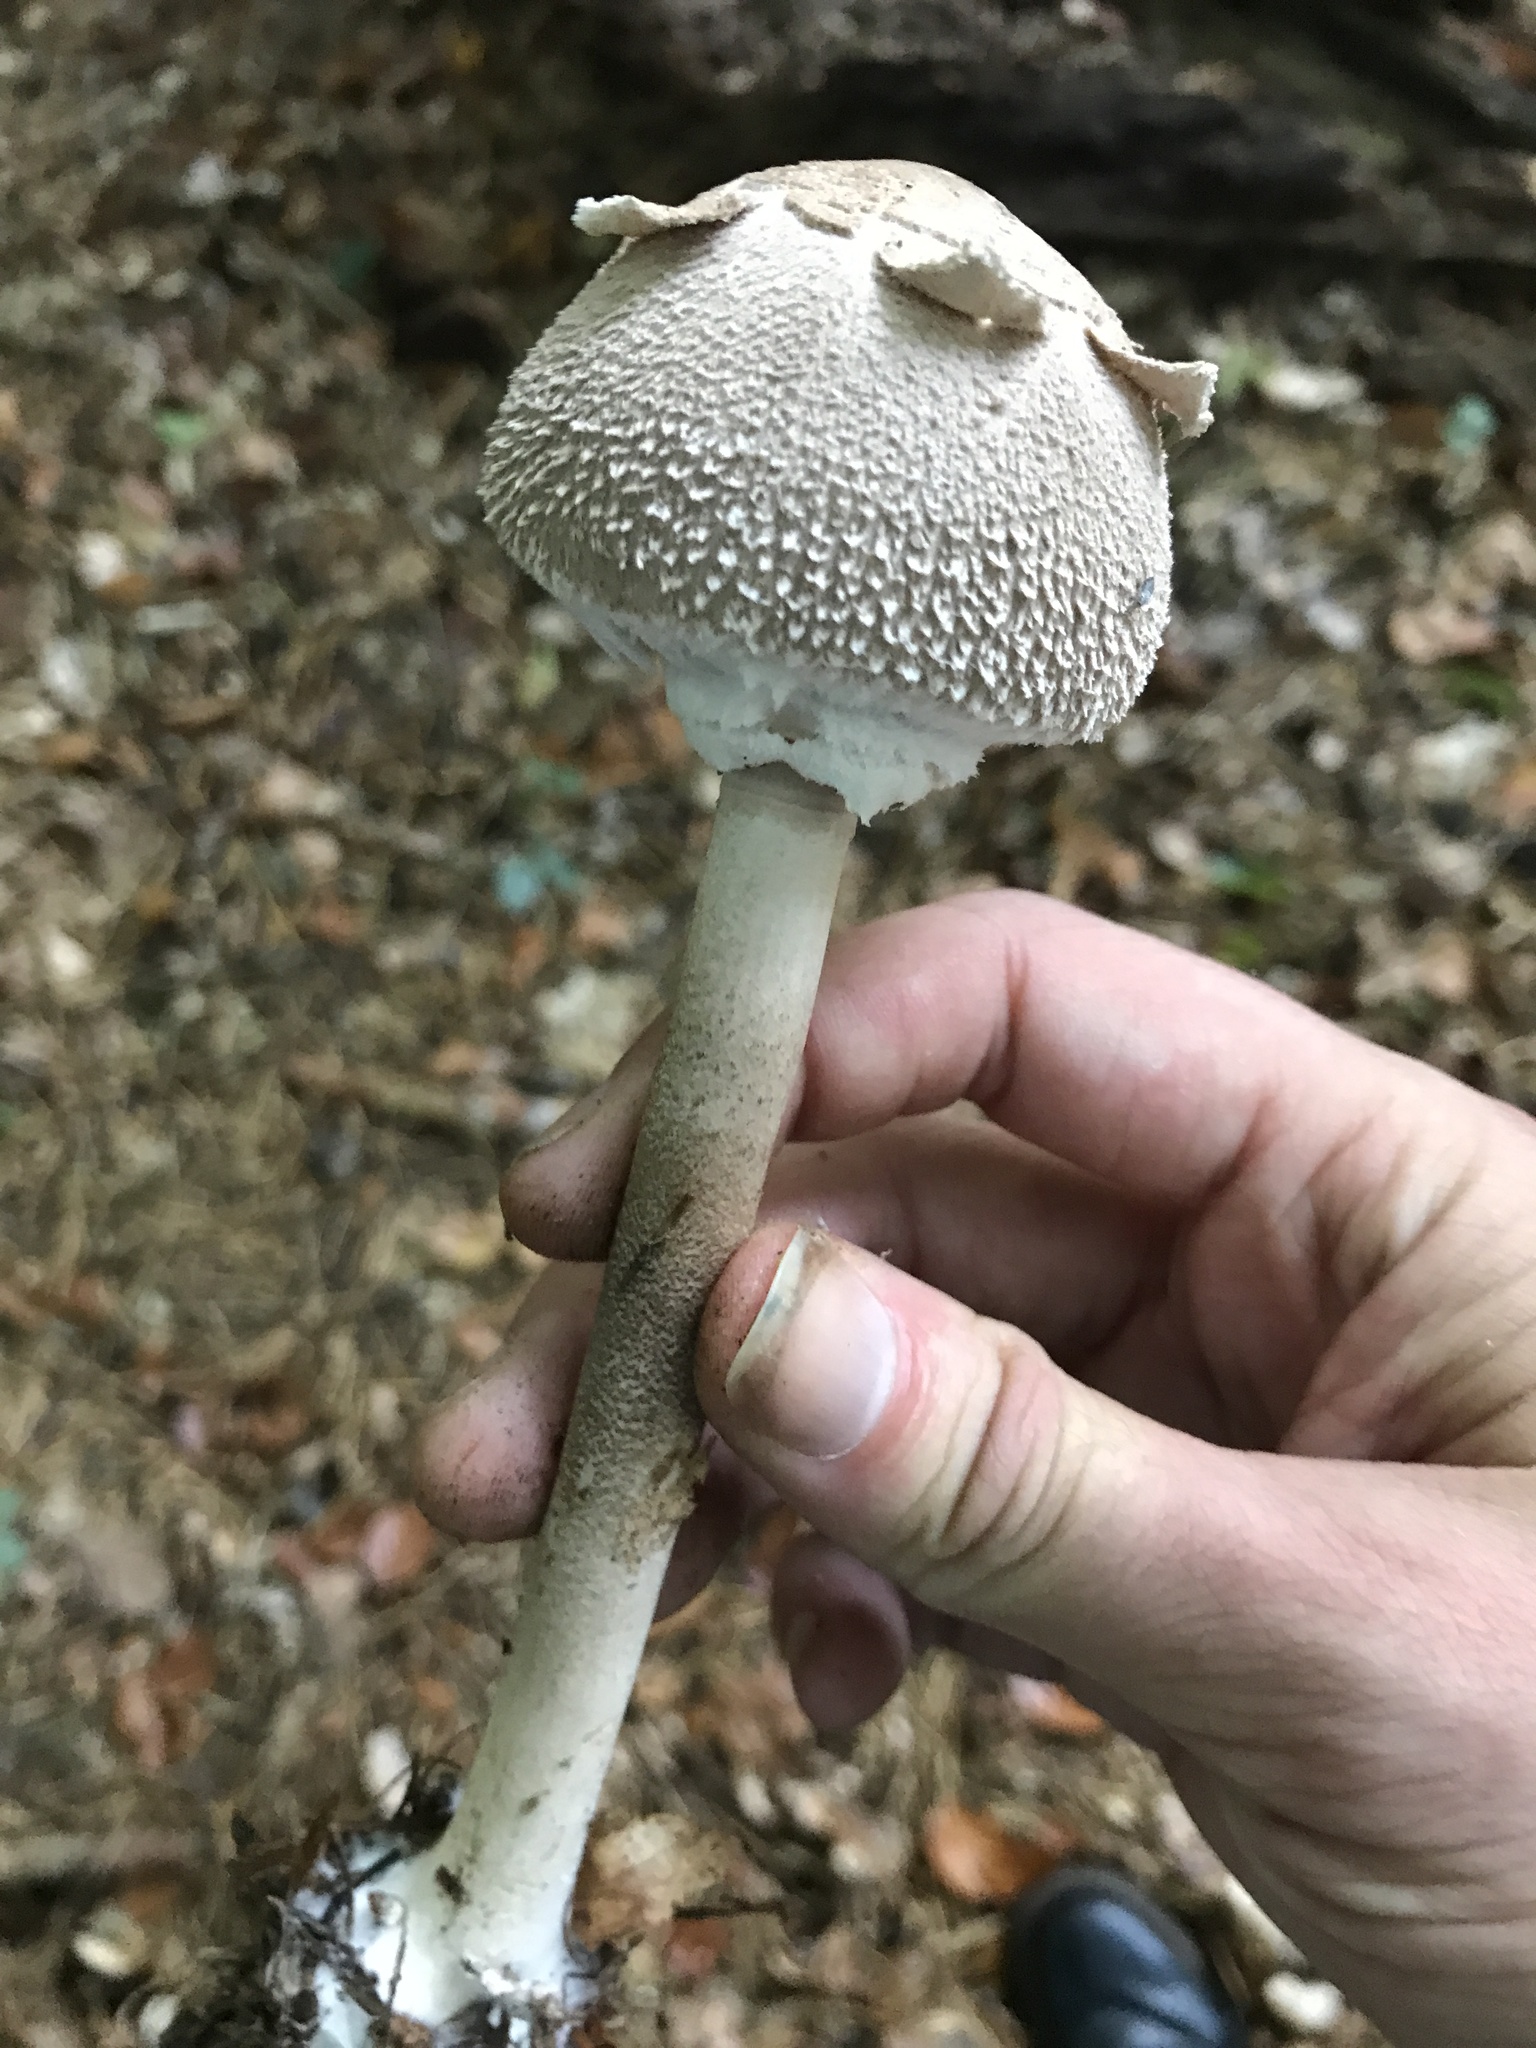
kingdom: Fungi
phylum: Basidiomycota
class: Agaricomycetes
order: Agaricales
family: Agaricaceae
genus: Macrolepiota
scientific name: Macrolepiota procera
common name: Parasol
